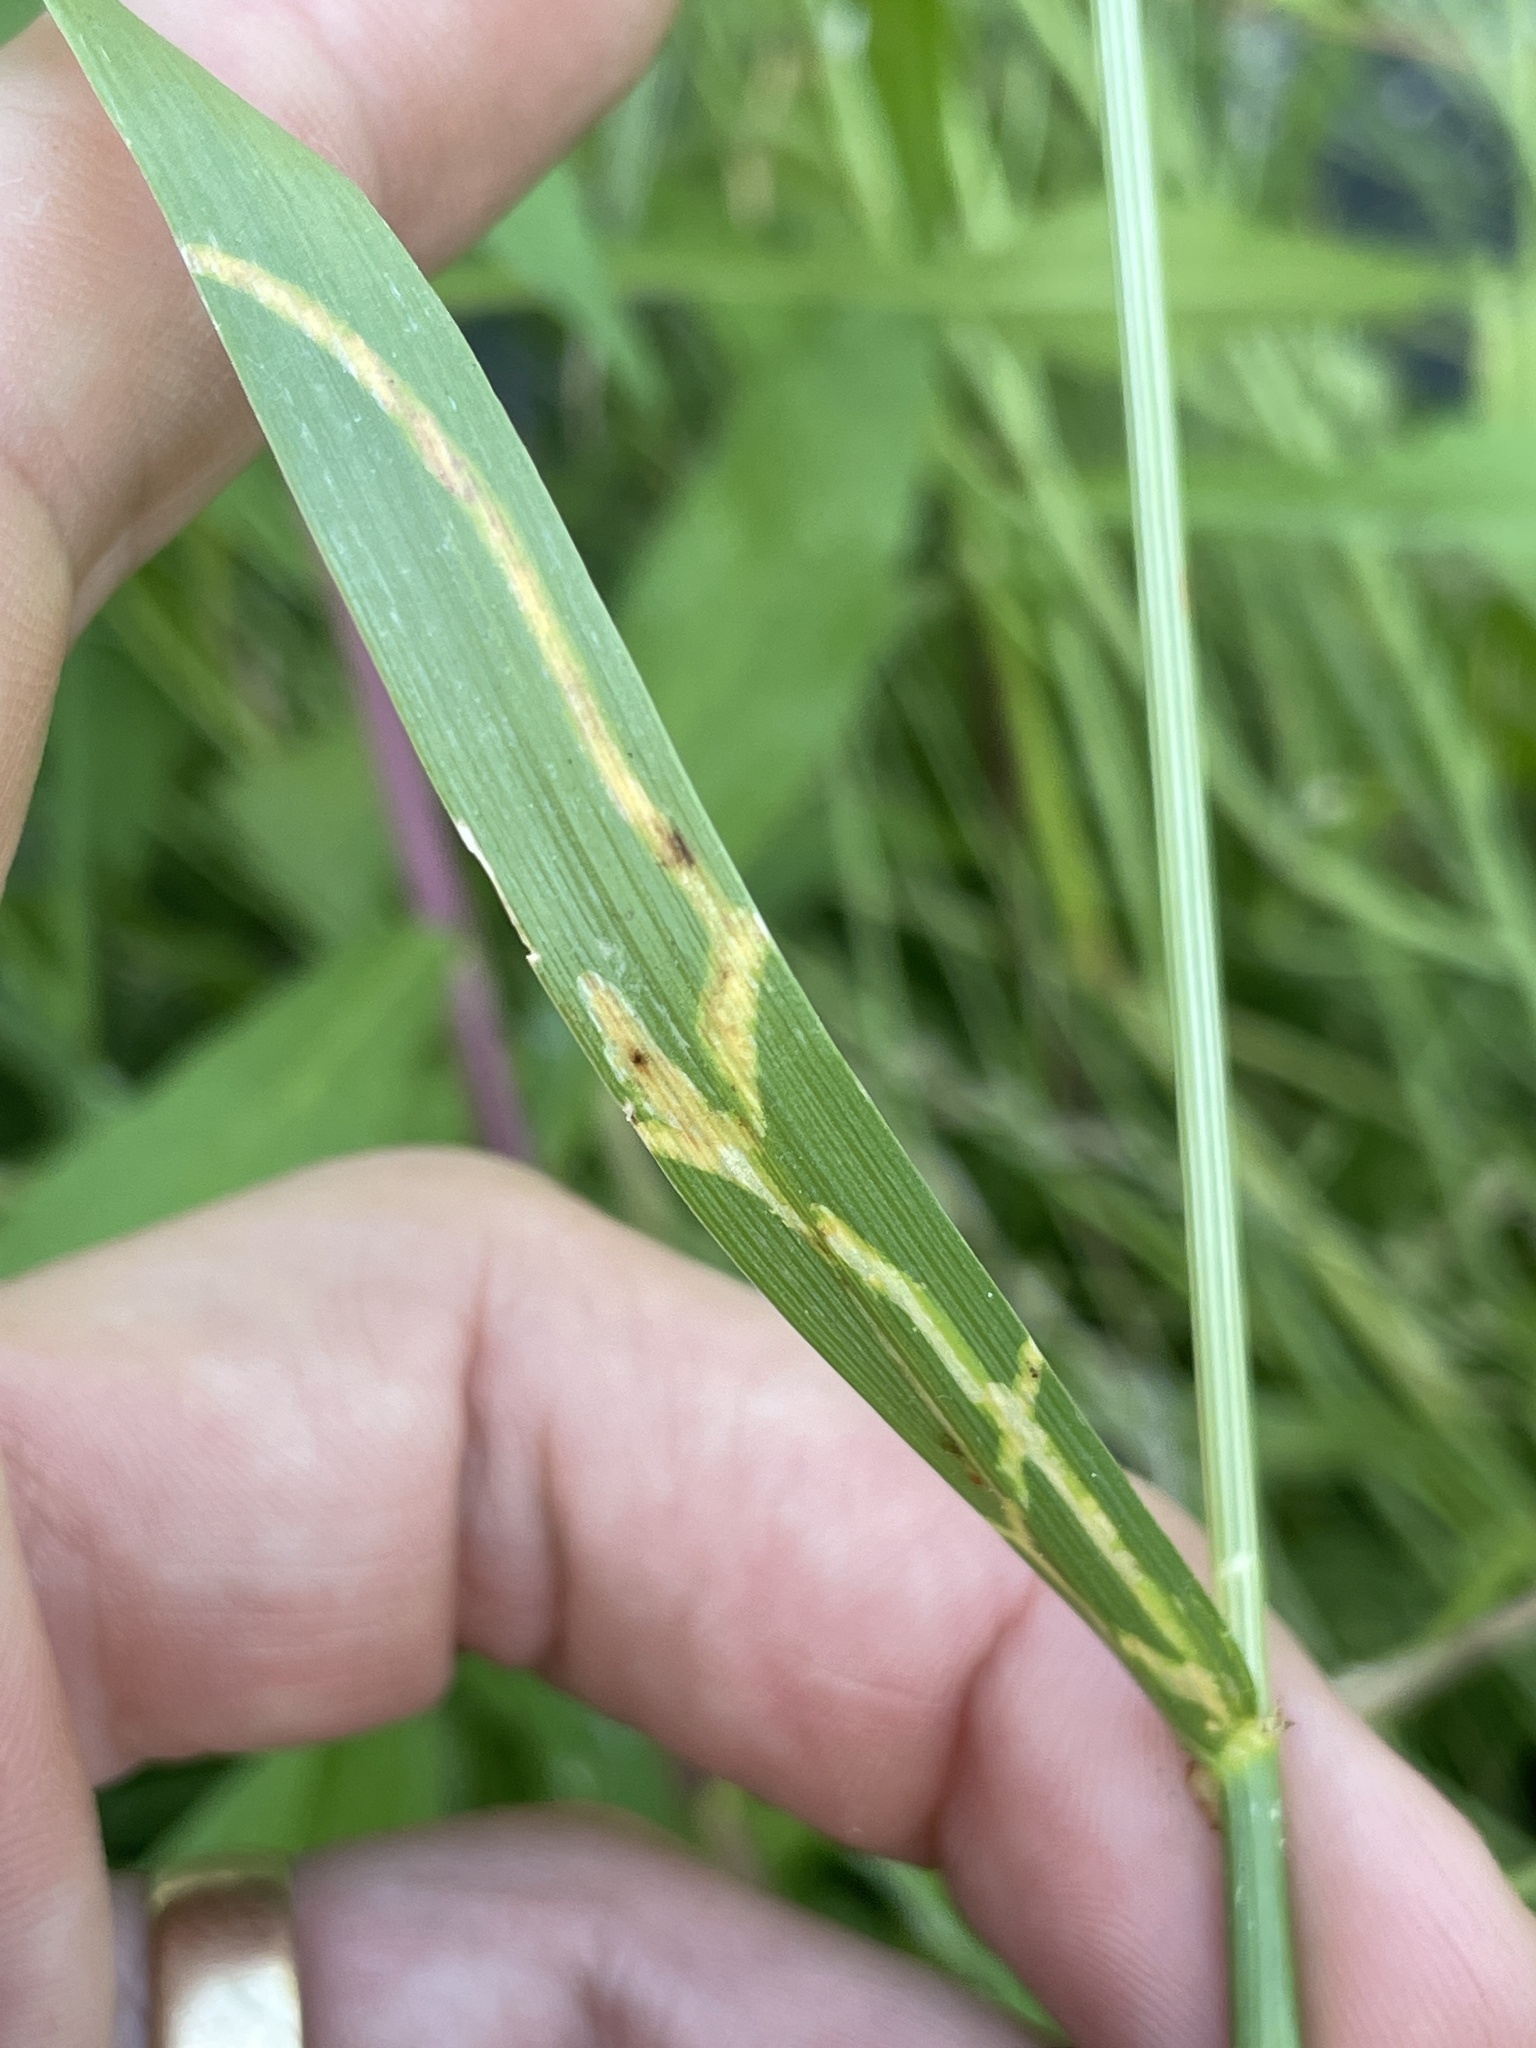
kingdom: Animalia
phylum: Arthropoda
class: Insecta
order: Diptera
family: Agromyzidae
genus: Cerodontha
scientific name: Cerodontha dorsalis
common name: Grass sheathminer fly
